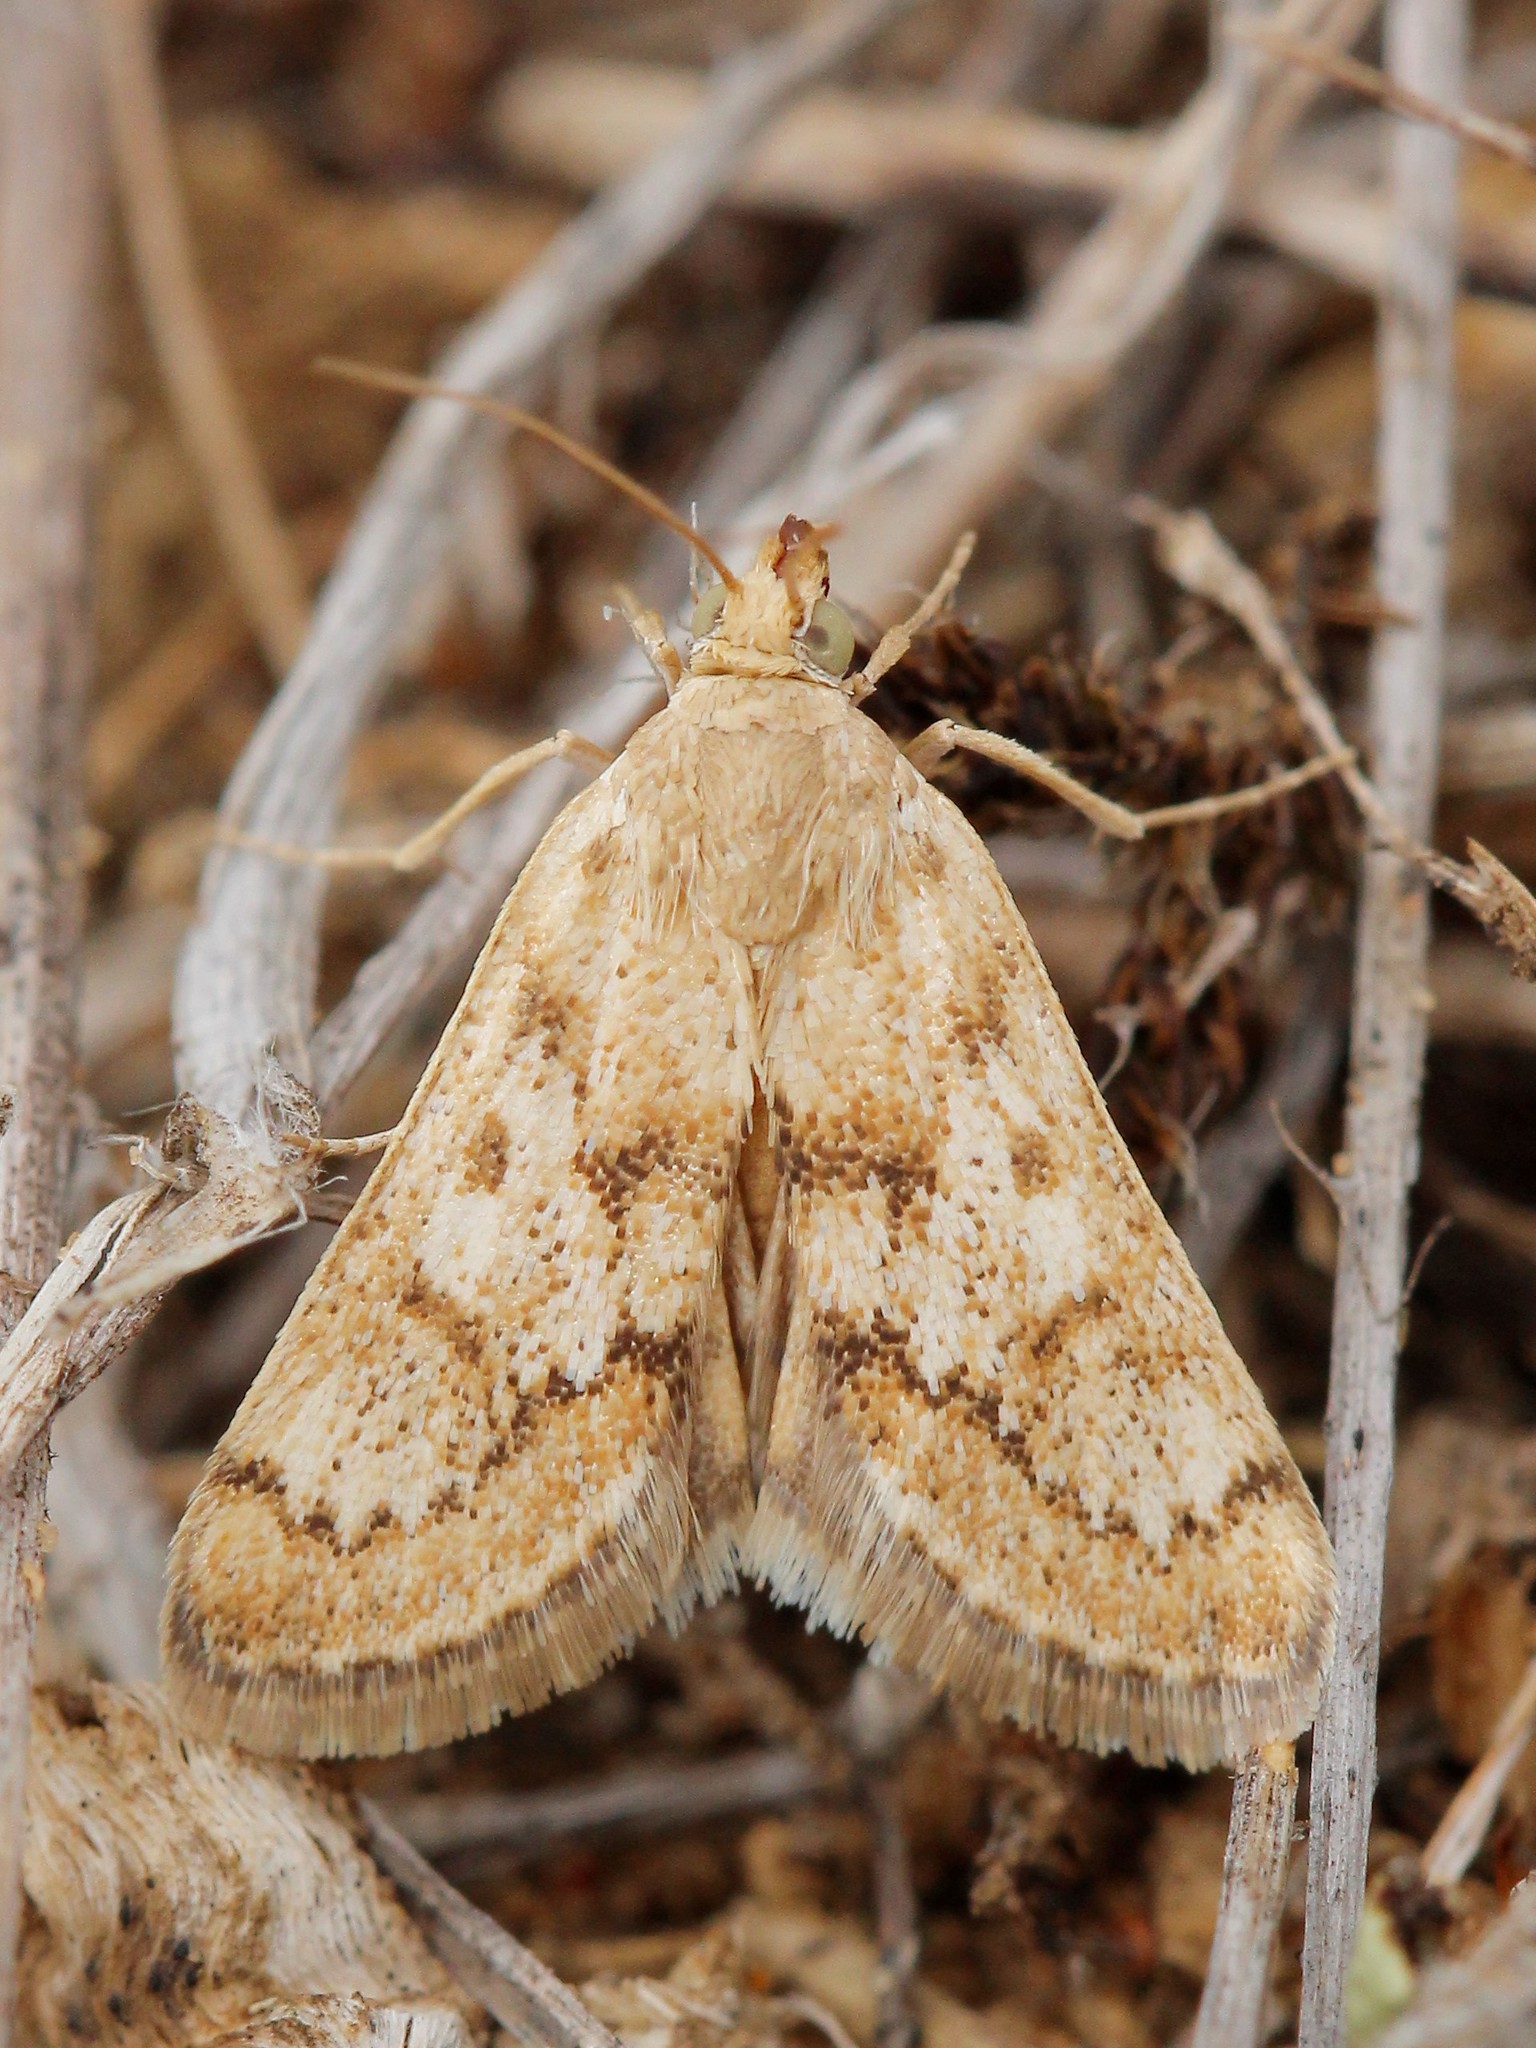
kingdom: Animalia
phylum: Arthropoda
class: Insecta
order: Lepidoptera
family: Crambidae
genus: Tegostoma
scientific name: Tegostoma comparalis
